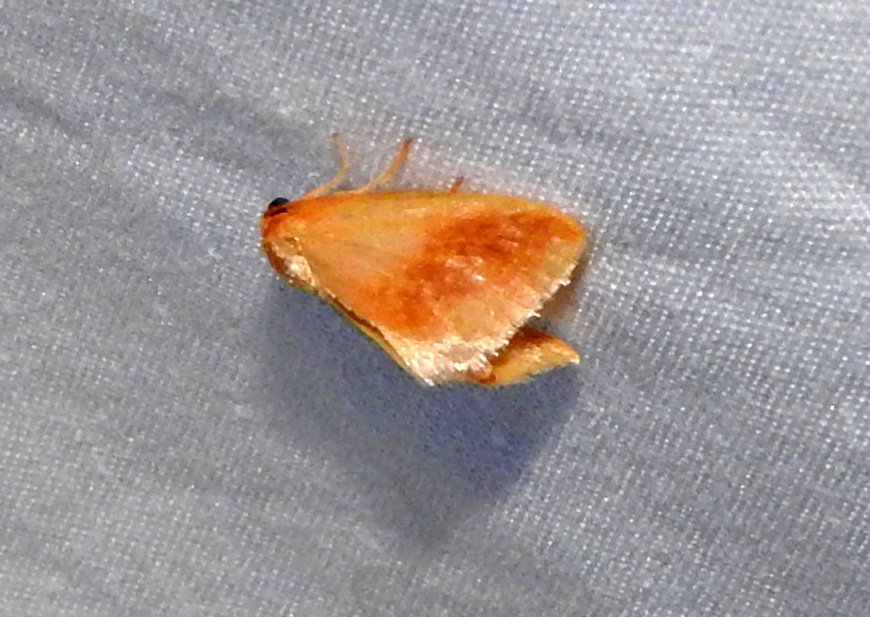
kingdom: Animalia
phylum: Arthropoda
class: Insecta
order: Lepidoptera
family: Limacodidae
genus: Tortricidia
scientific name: Tortricidia testacea
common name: Early button slug moth
